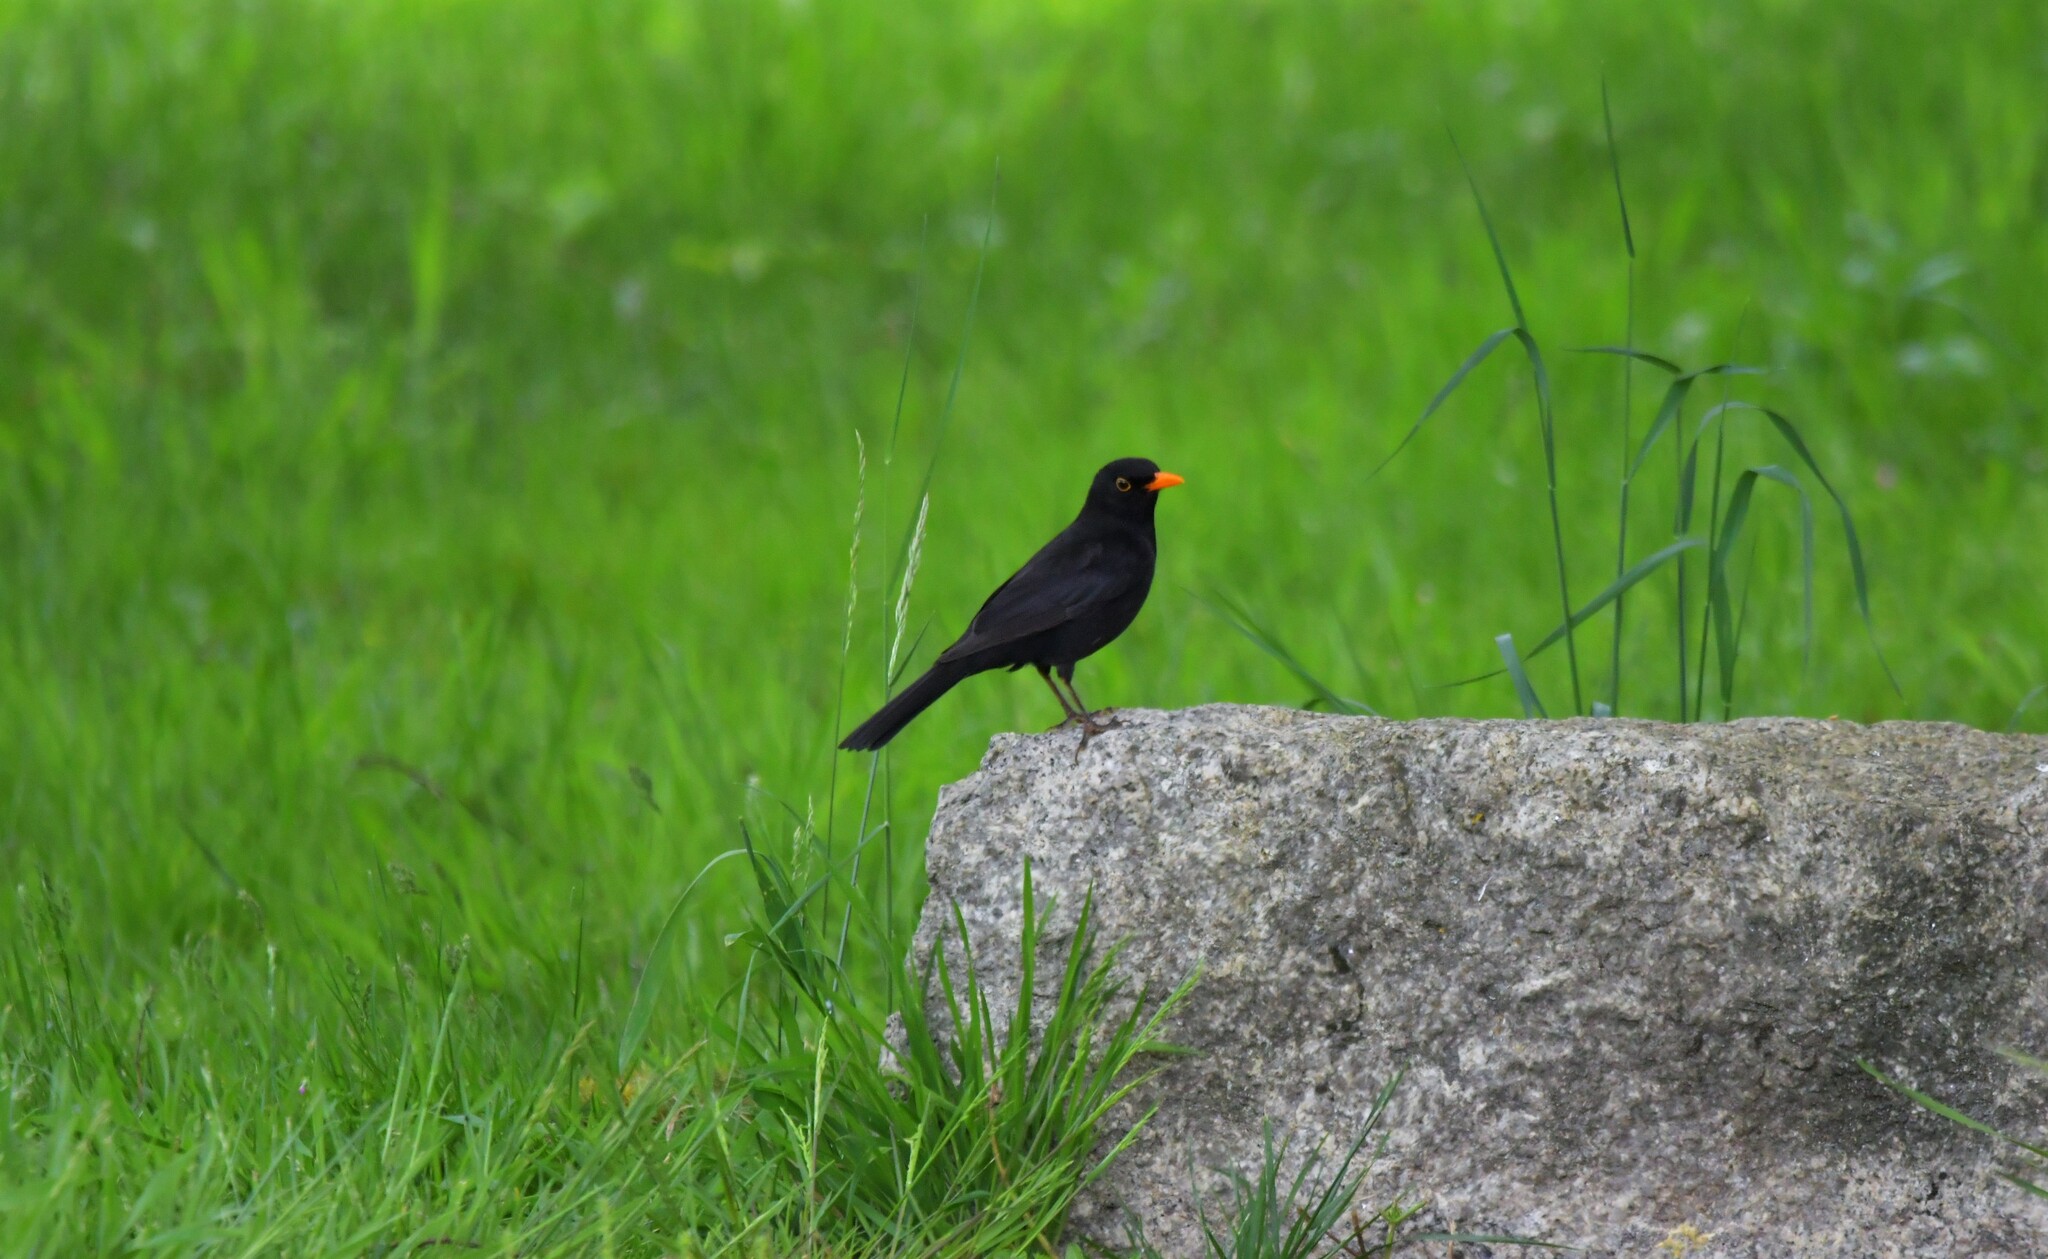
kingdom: Animalia
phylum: Chordata
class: Aves
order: Passeriformes
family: Turdidae
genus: Turdus
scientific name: Turdus merula
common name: Common blackbird
